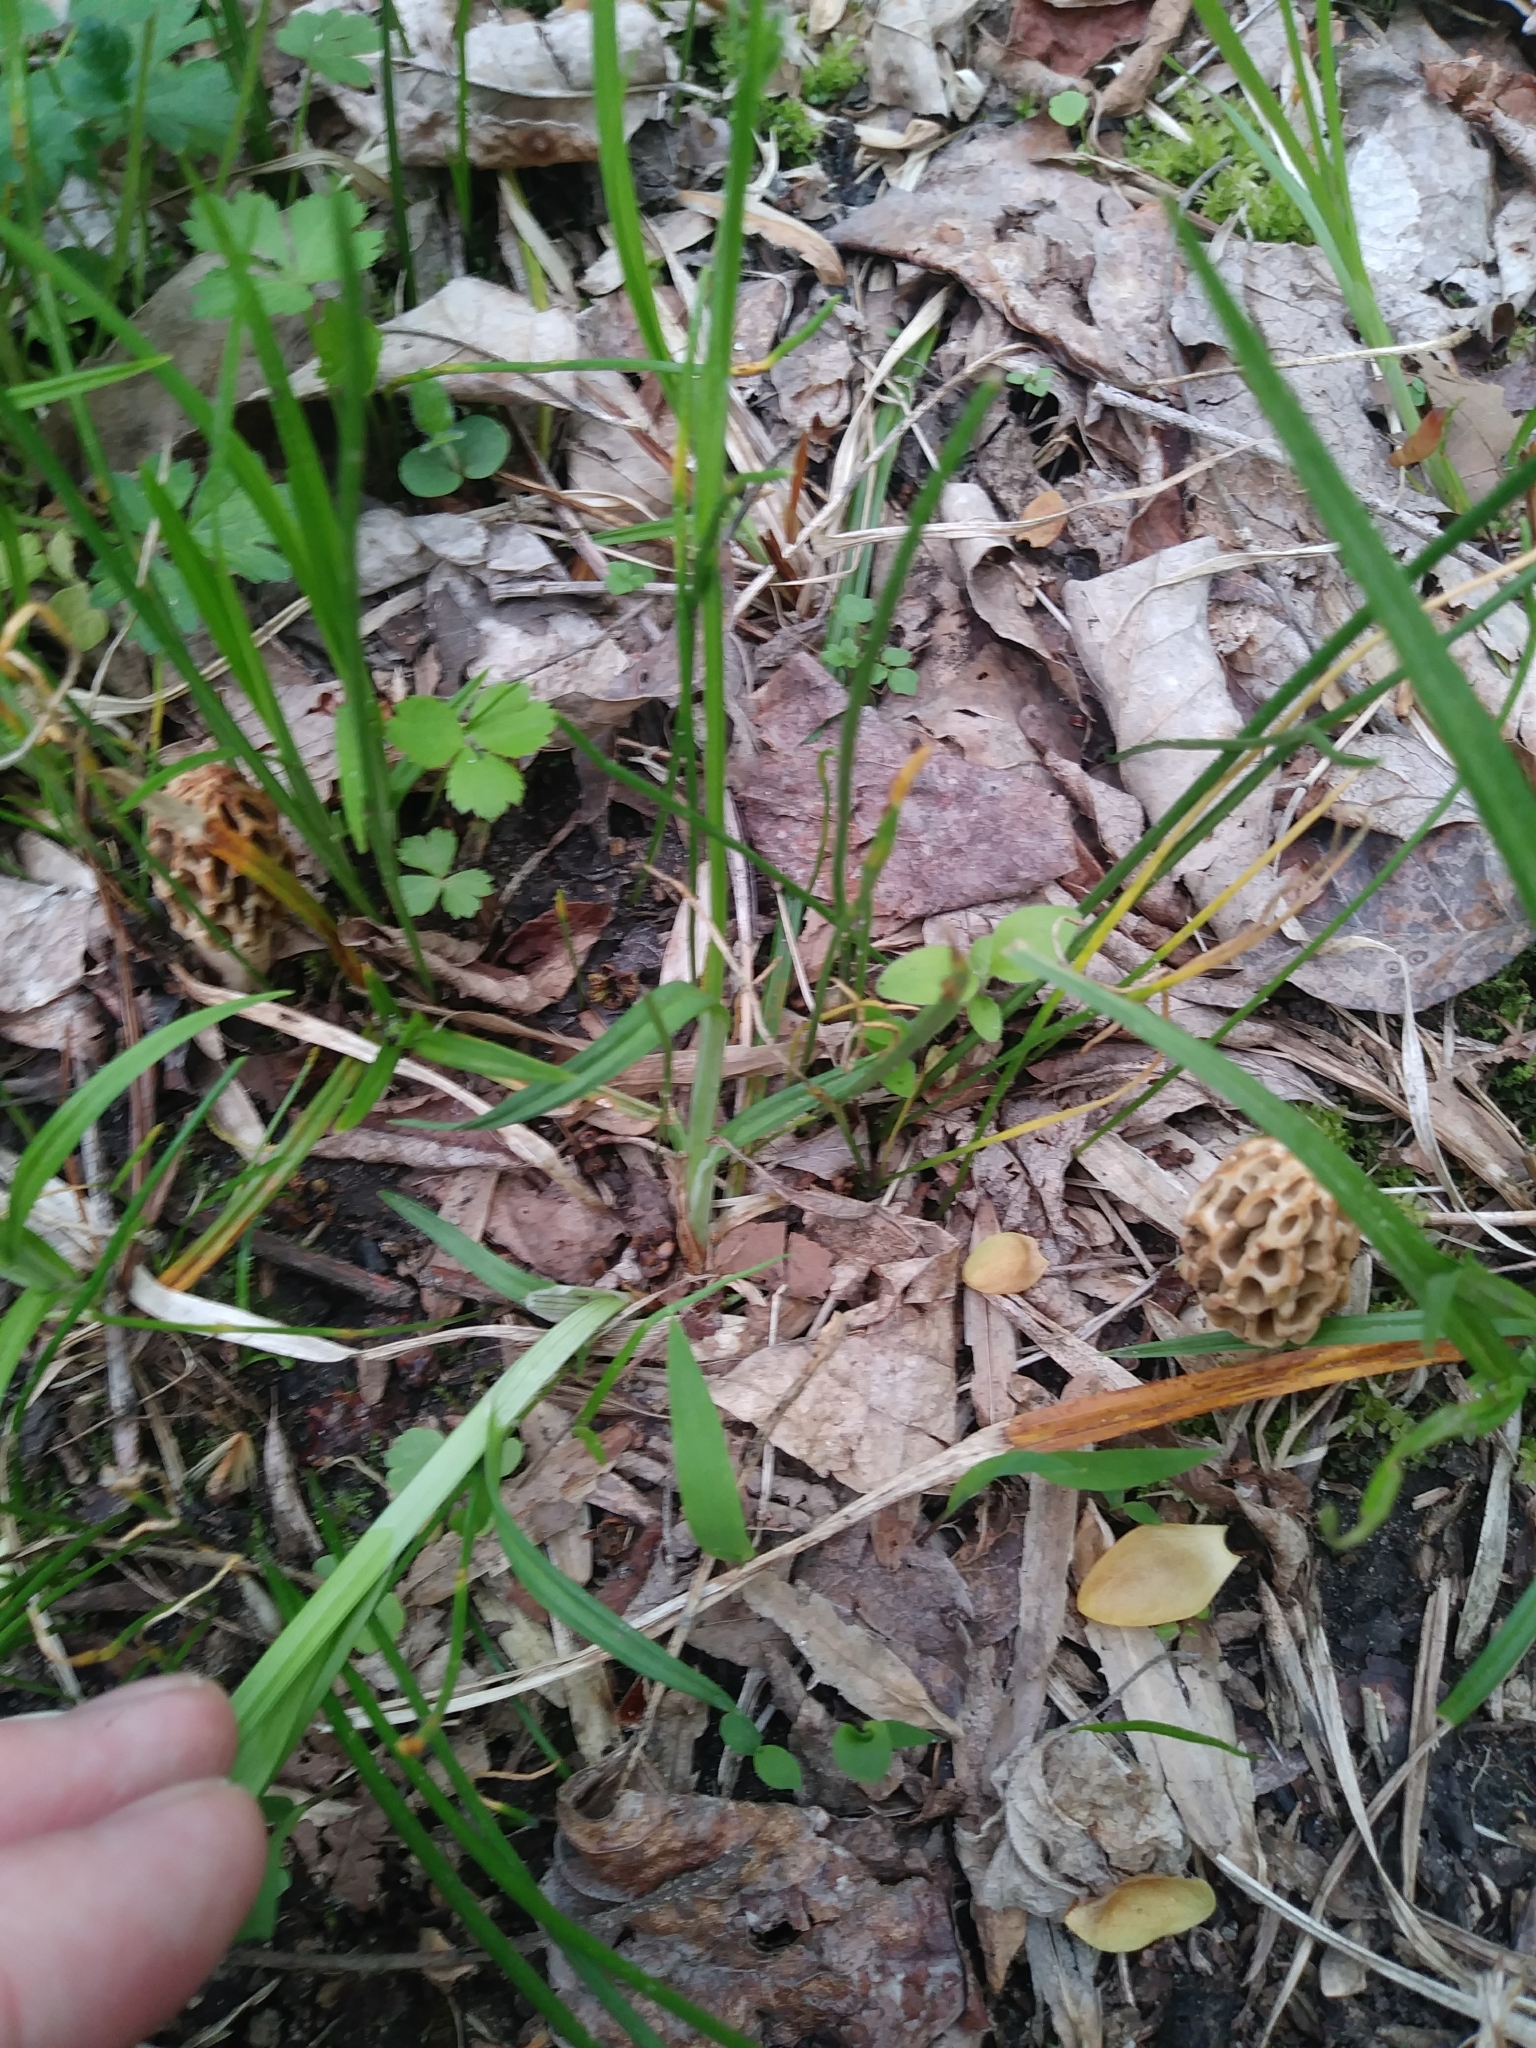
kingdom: Fungi
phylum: Ascomycota
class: Pezizomycetes
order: Pezizales
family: Morchellaceae
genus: Morchella
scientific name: Morchella americana
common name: White morel
